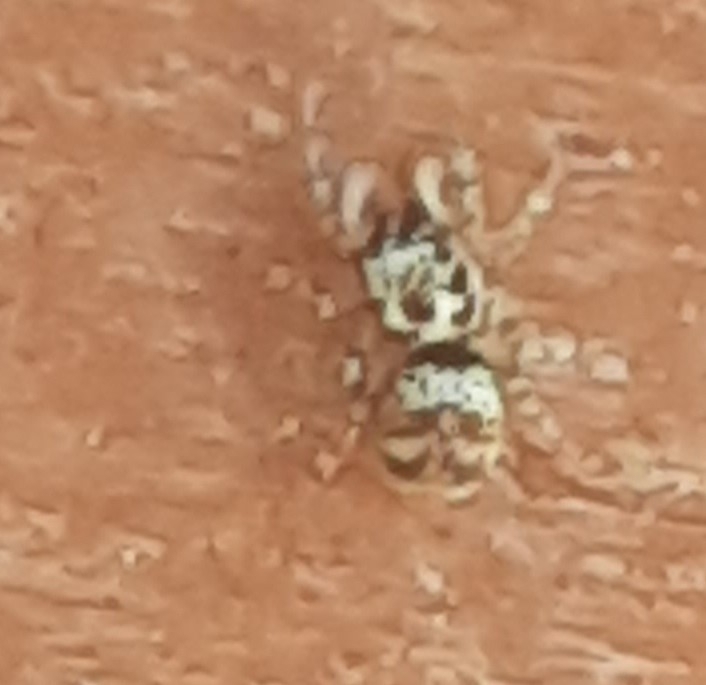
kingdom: Animalia
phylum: Arthropoda
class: Arachnida
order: Araneae
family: Salticidae
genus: Salticus
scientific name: Salticus scenicus
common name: Zebra jumper
